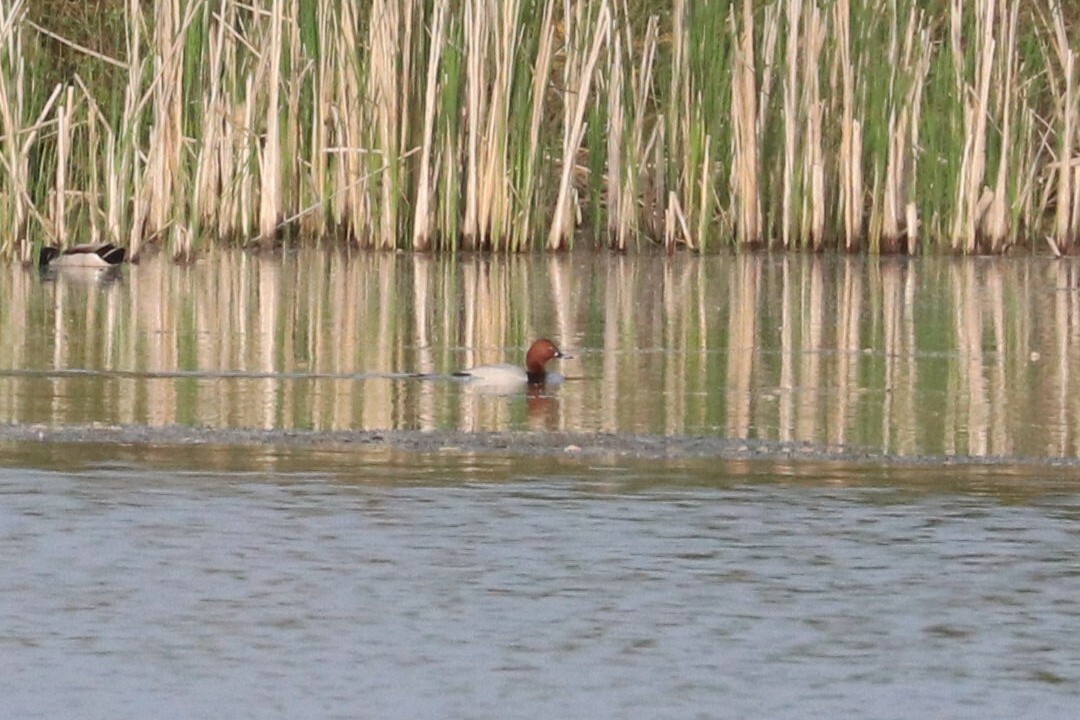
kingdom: Animalia
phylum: Chordata
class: Aves
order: Anseriformes
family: Anatidae
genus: Aythya
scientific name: Aythya ferina
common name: Common pochard
